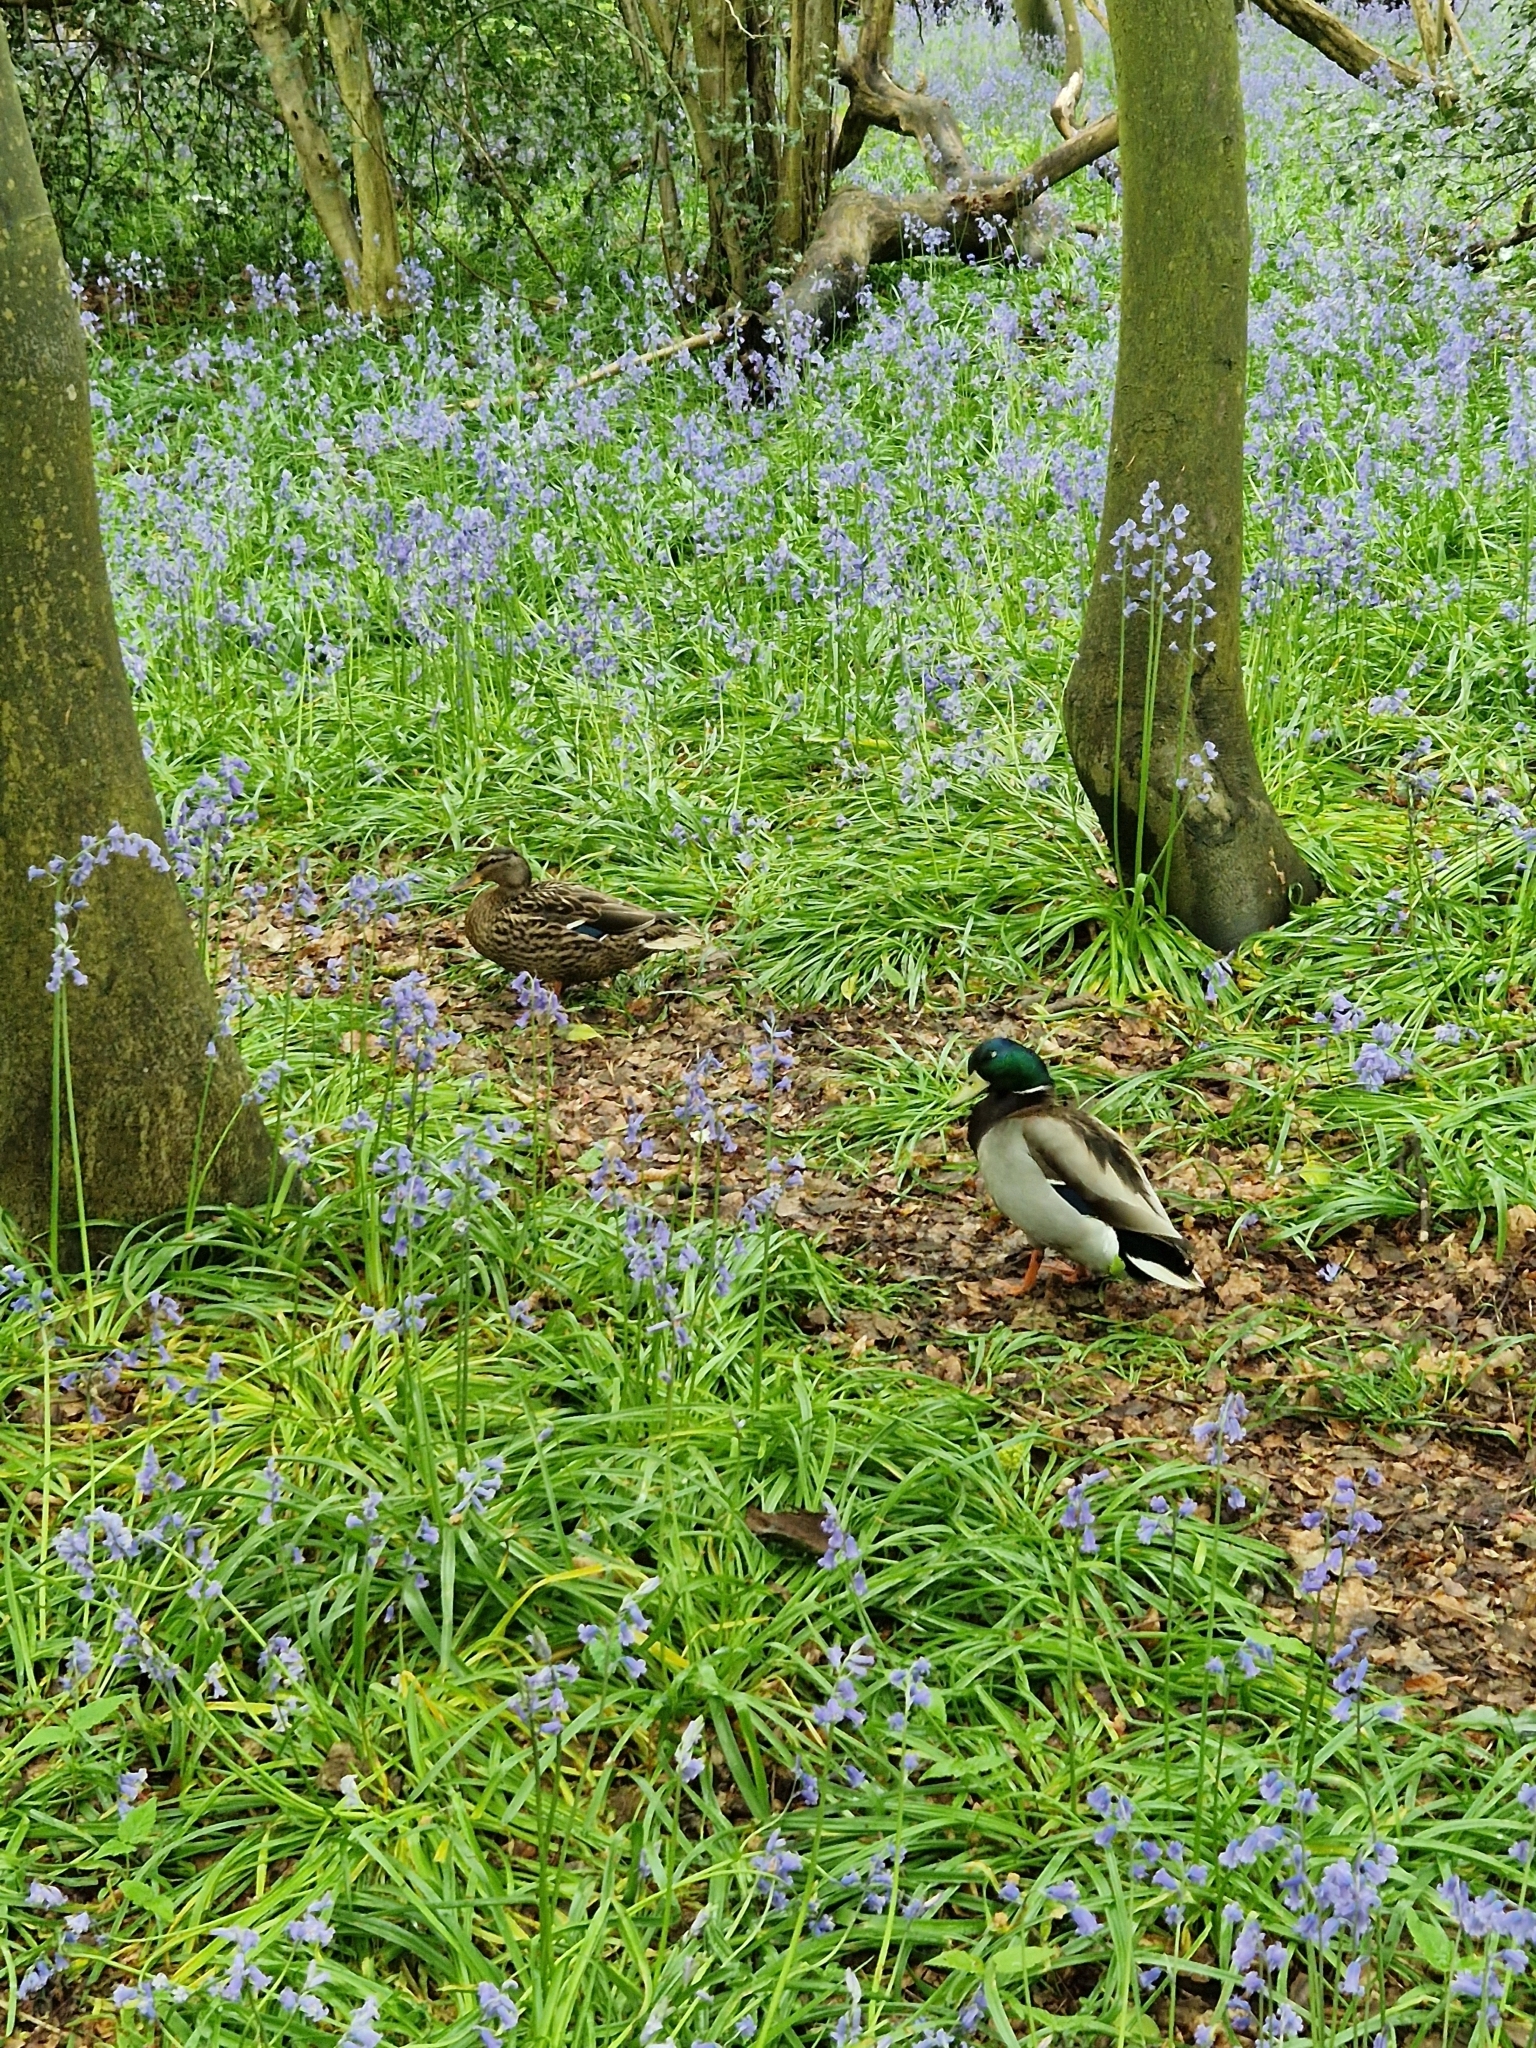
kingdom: Animalia
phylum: Chordata
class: Aves
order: Anseriformes
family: Anatidae
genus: Anas
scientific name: Anas platyrhynchos
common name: Mallard
